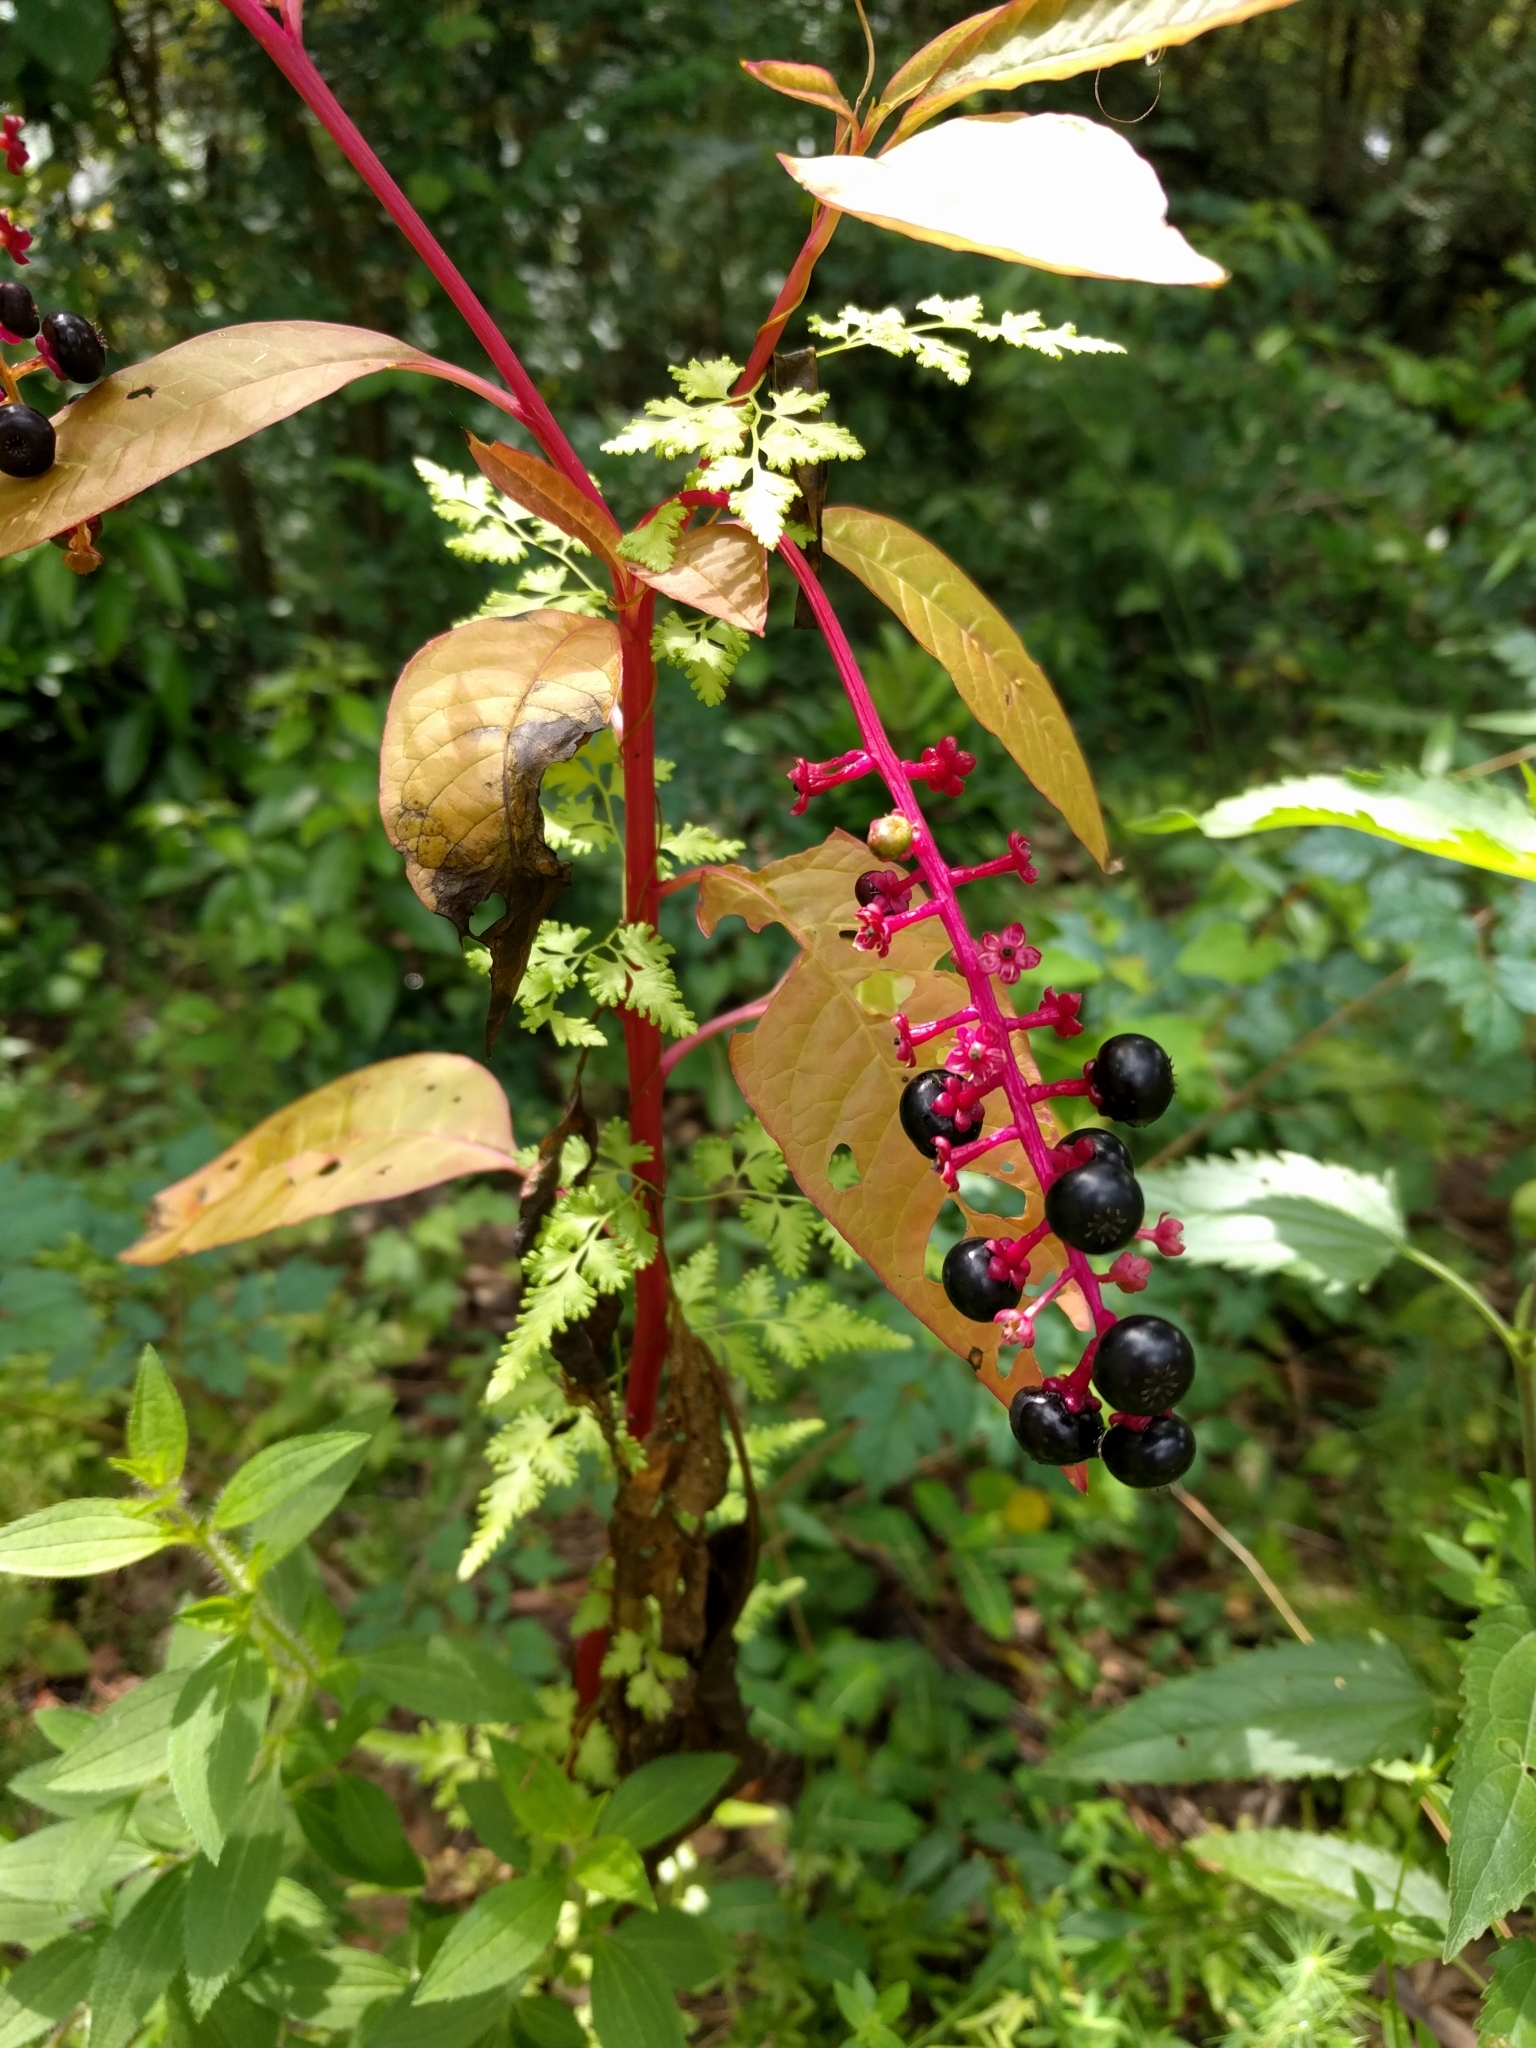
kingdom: Plantae
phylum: Tracheophyta
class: Magnoliopsida
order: Caryophyllales
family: Phytolaccaceae
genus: Phytolacca
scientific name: Phytolacca americana
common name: American pokeweed
